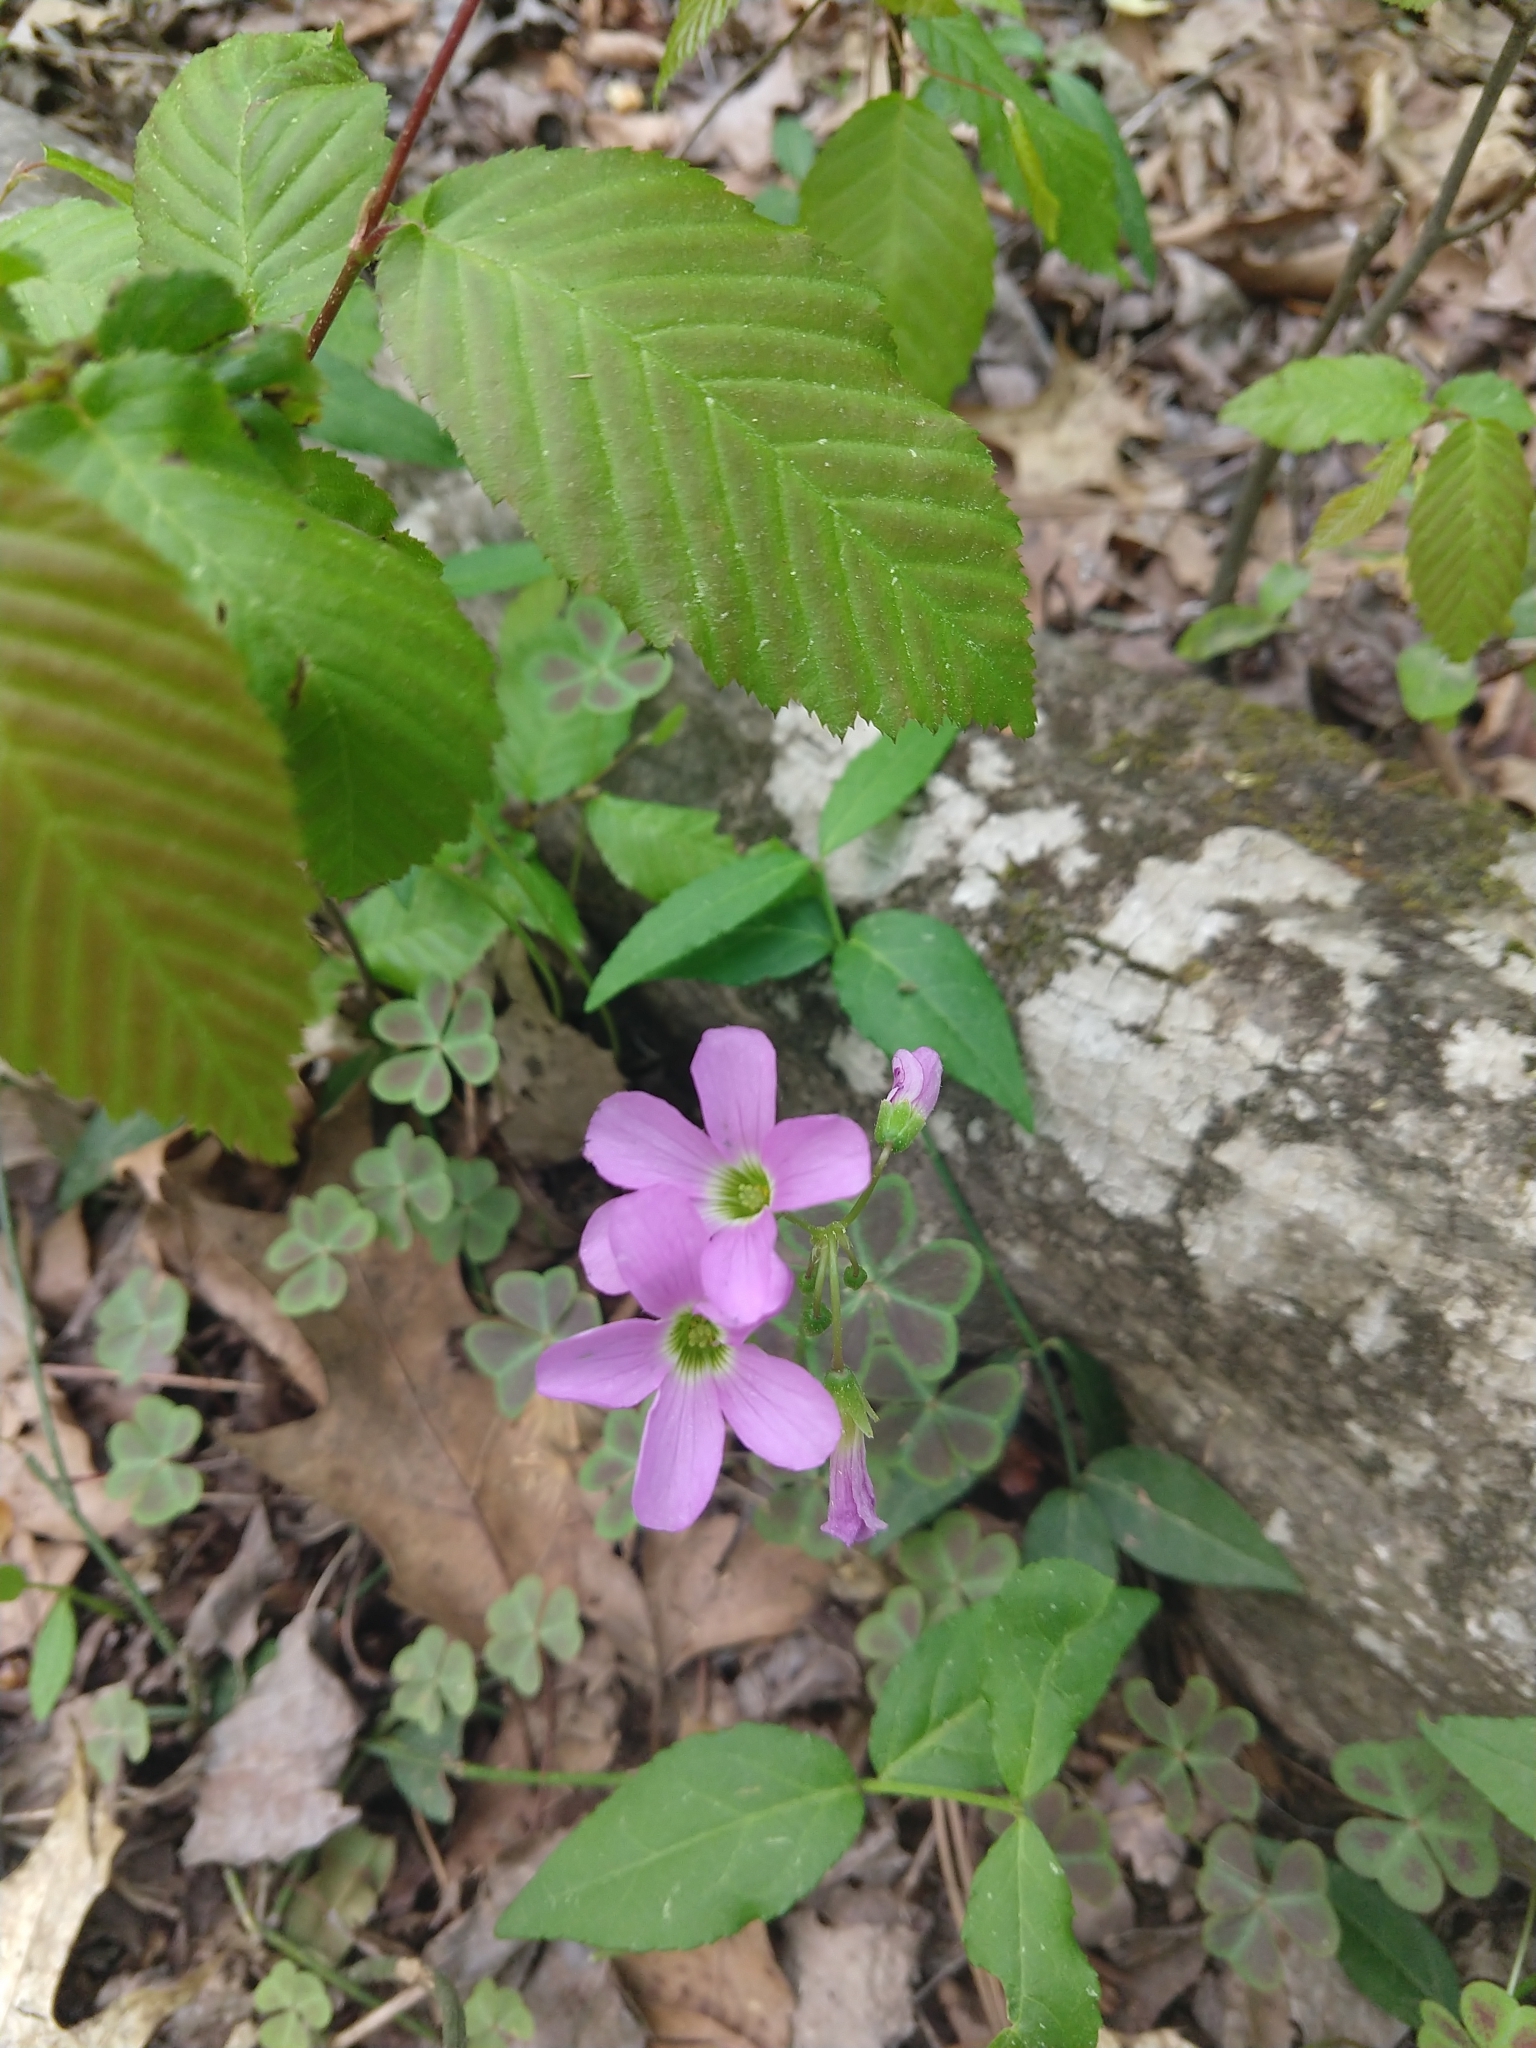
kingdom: Plantae
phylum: Tracheophyta
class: Magnoliopsida
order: Oxalidales
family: Oxalidaceae
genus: Oxalis
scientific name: Oxalis violacea
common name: Violet wood-sorrel
